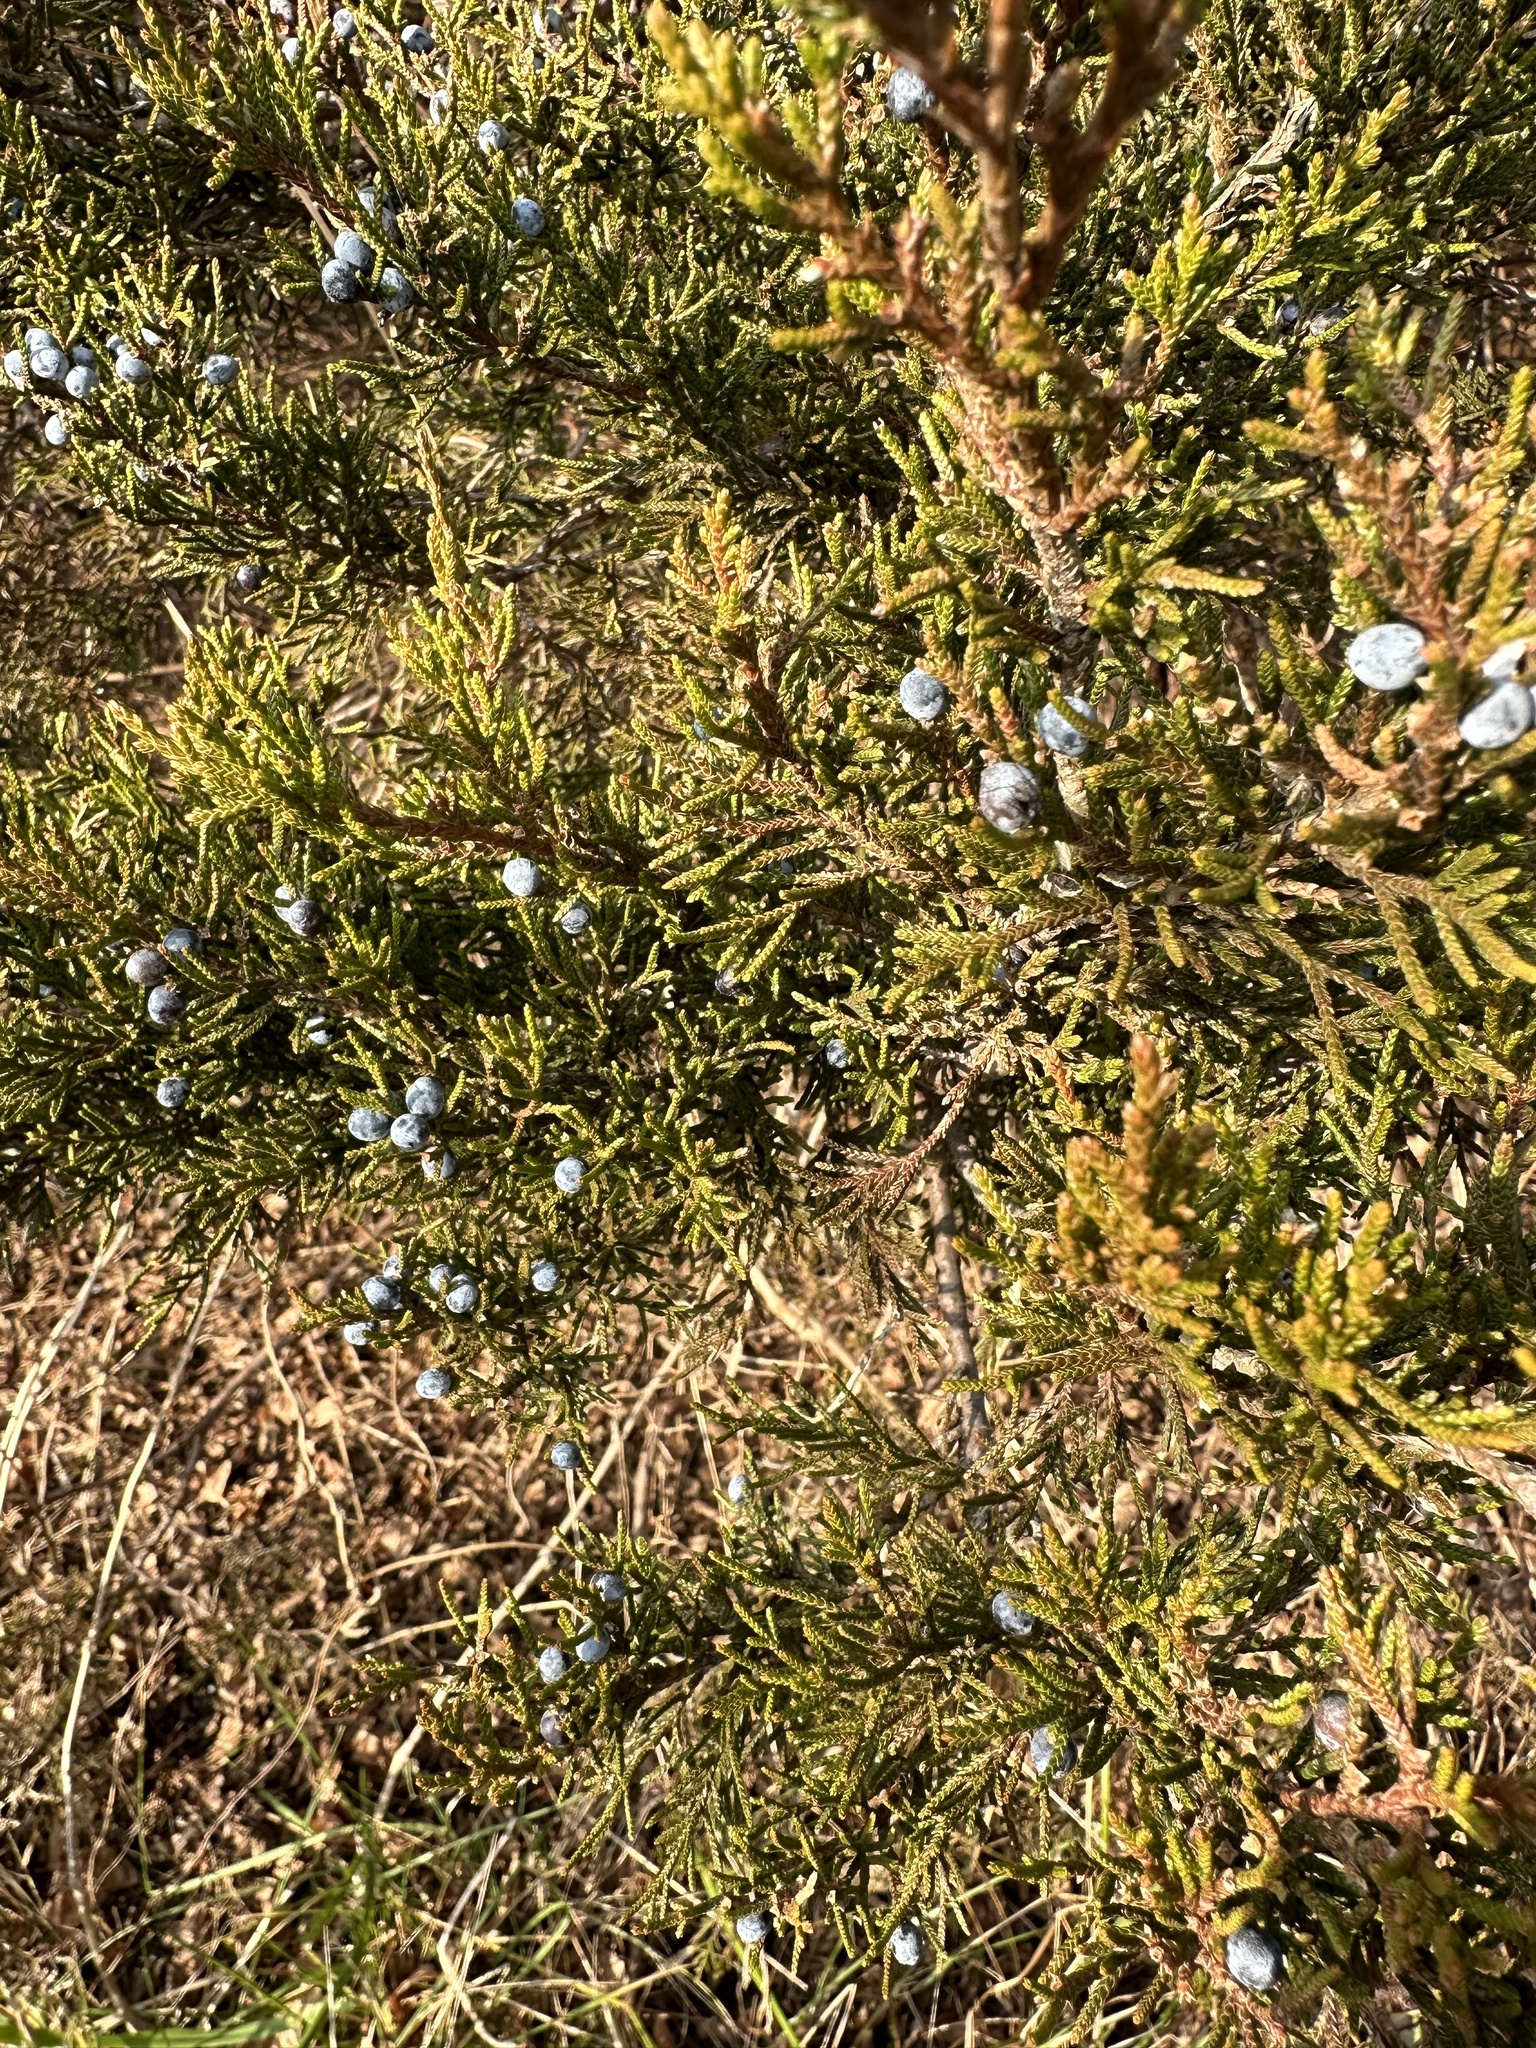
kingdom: Plantae
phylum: Tracheophyta
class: Pinopsida
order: Pinales
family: Cupressaceae
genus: Juniperus
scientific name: Juniperus virginiana
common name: Red juniper
